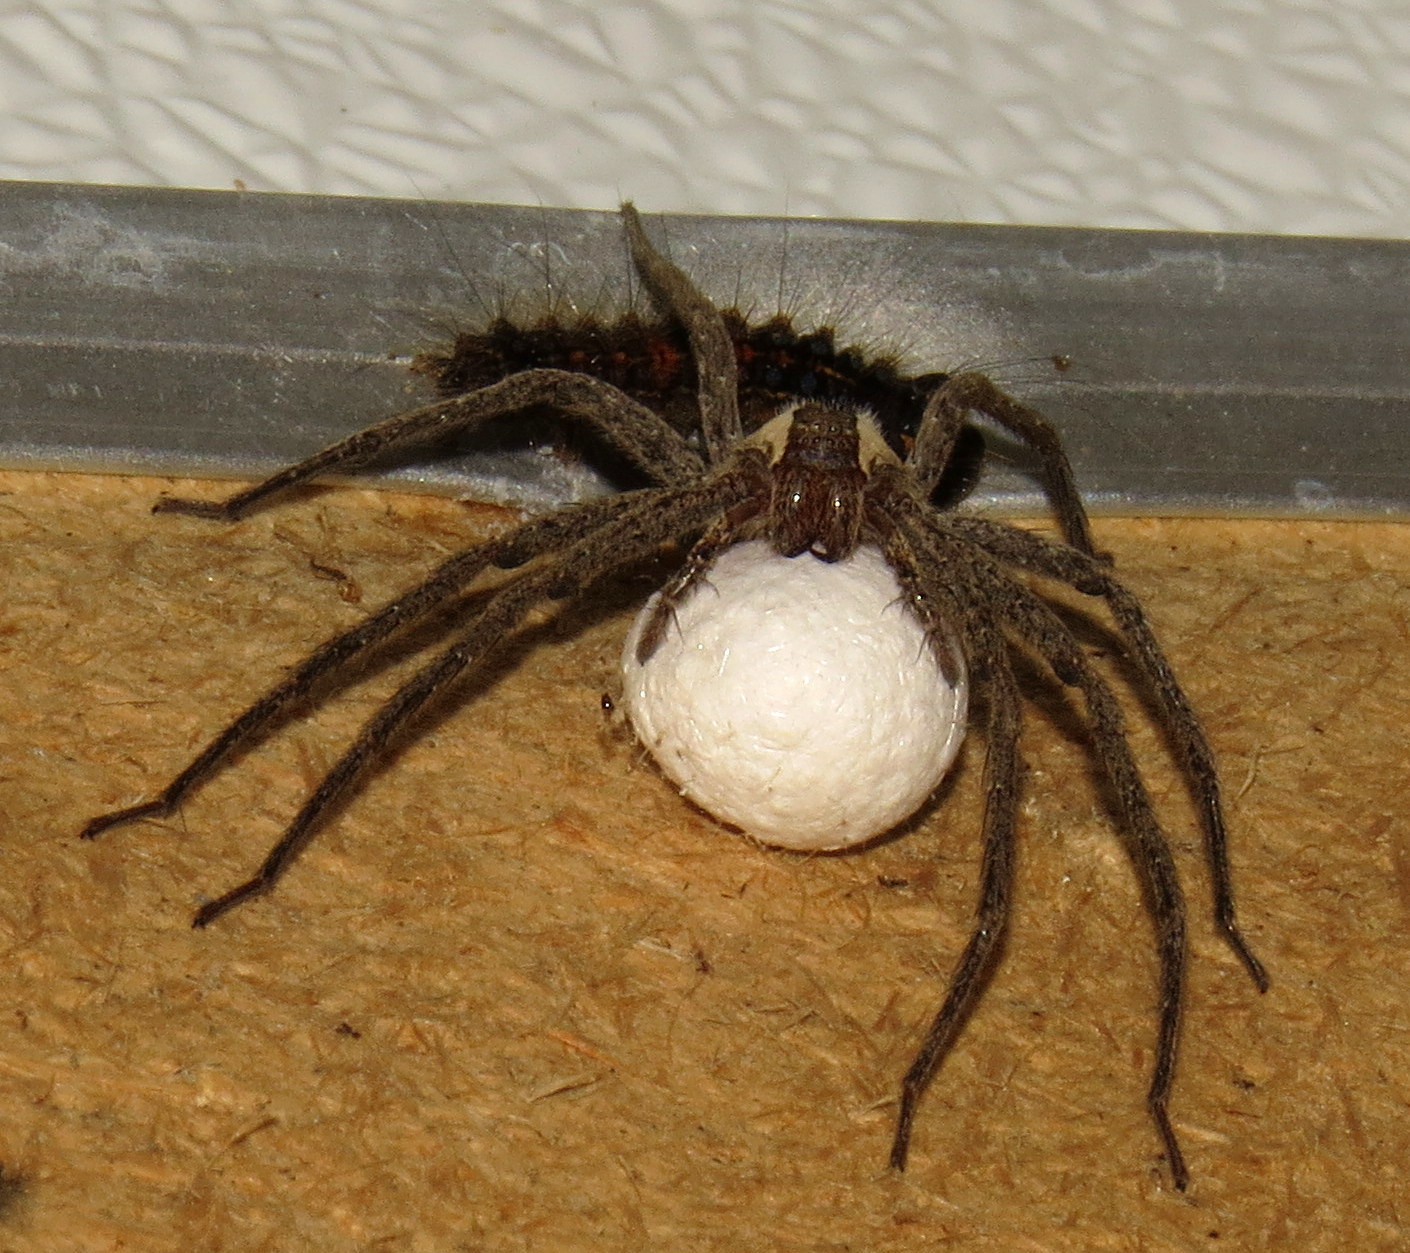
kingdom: Animalia
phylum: Arthropoda
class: Arachnida
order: Araneae
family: Pisauridae
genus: Pisaurina
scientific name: Pisaurina mira
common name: American nursery web spider
